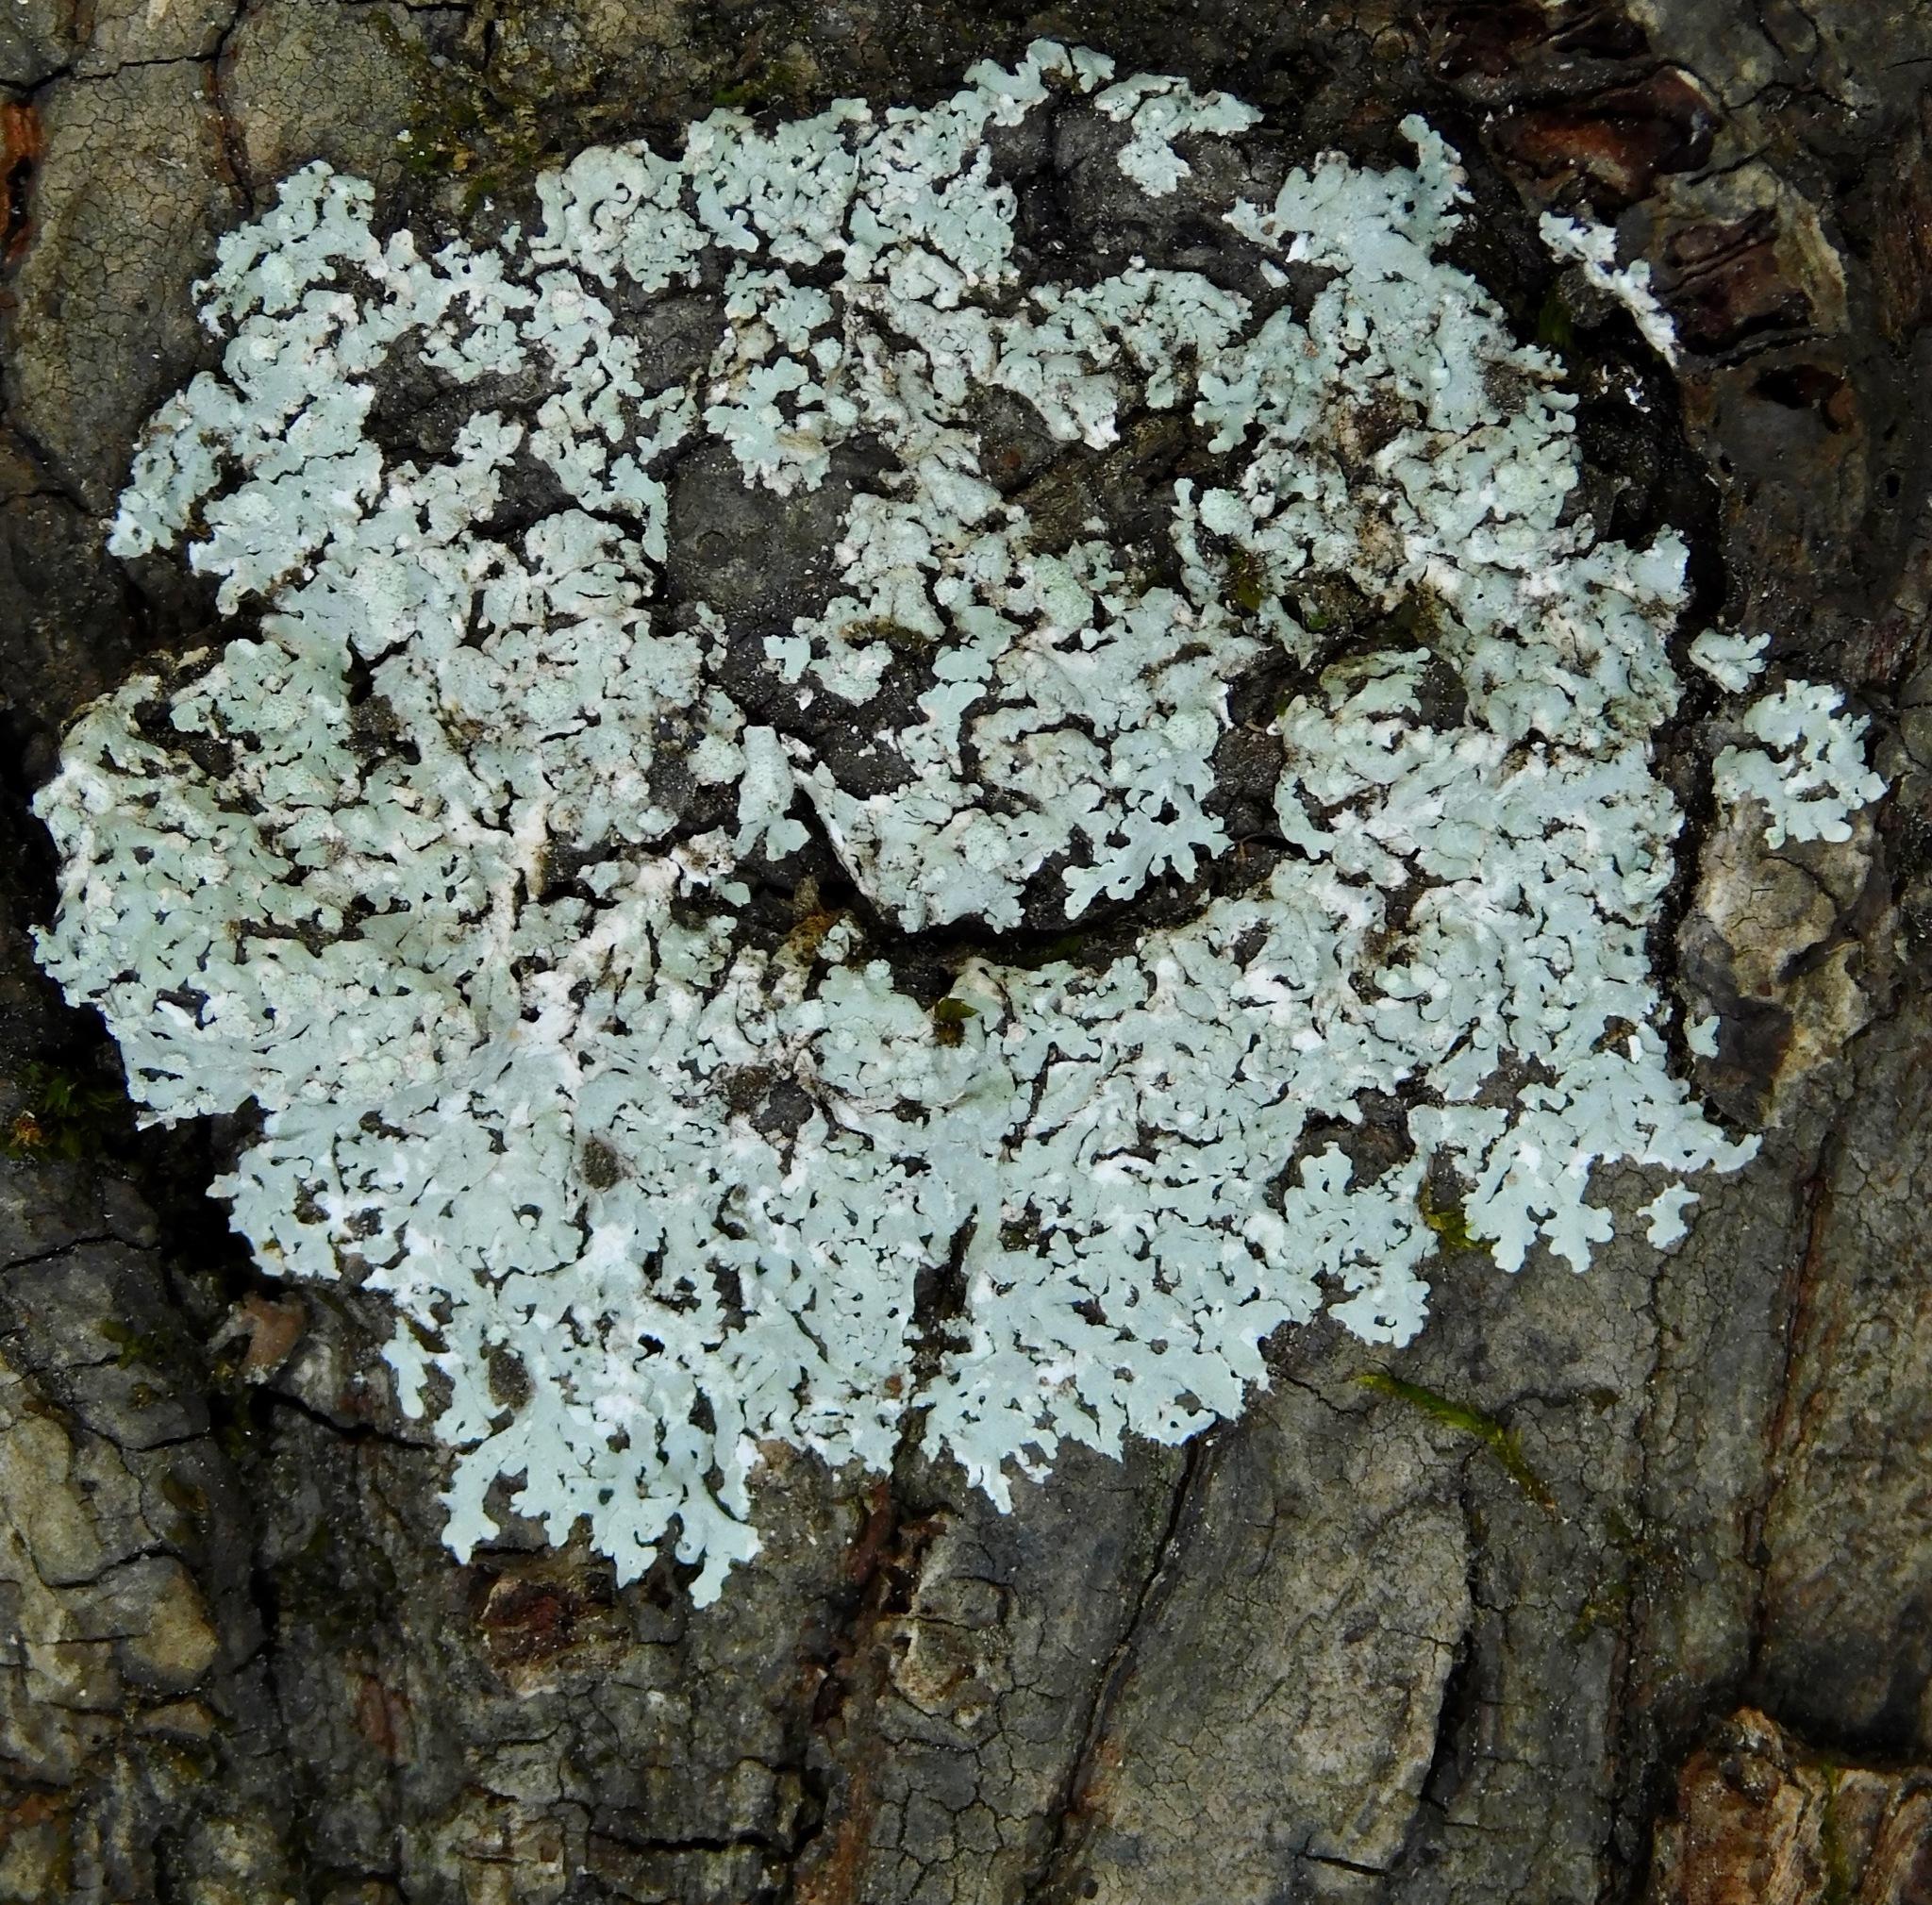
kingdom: Fungi
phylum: Ascomycota
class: Lecanoromycetes
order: Caliciales
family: Physciaceae
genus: Physcia
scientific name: Physcia americana
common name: American rosette lichen
